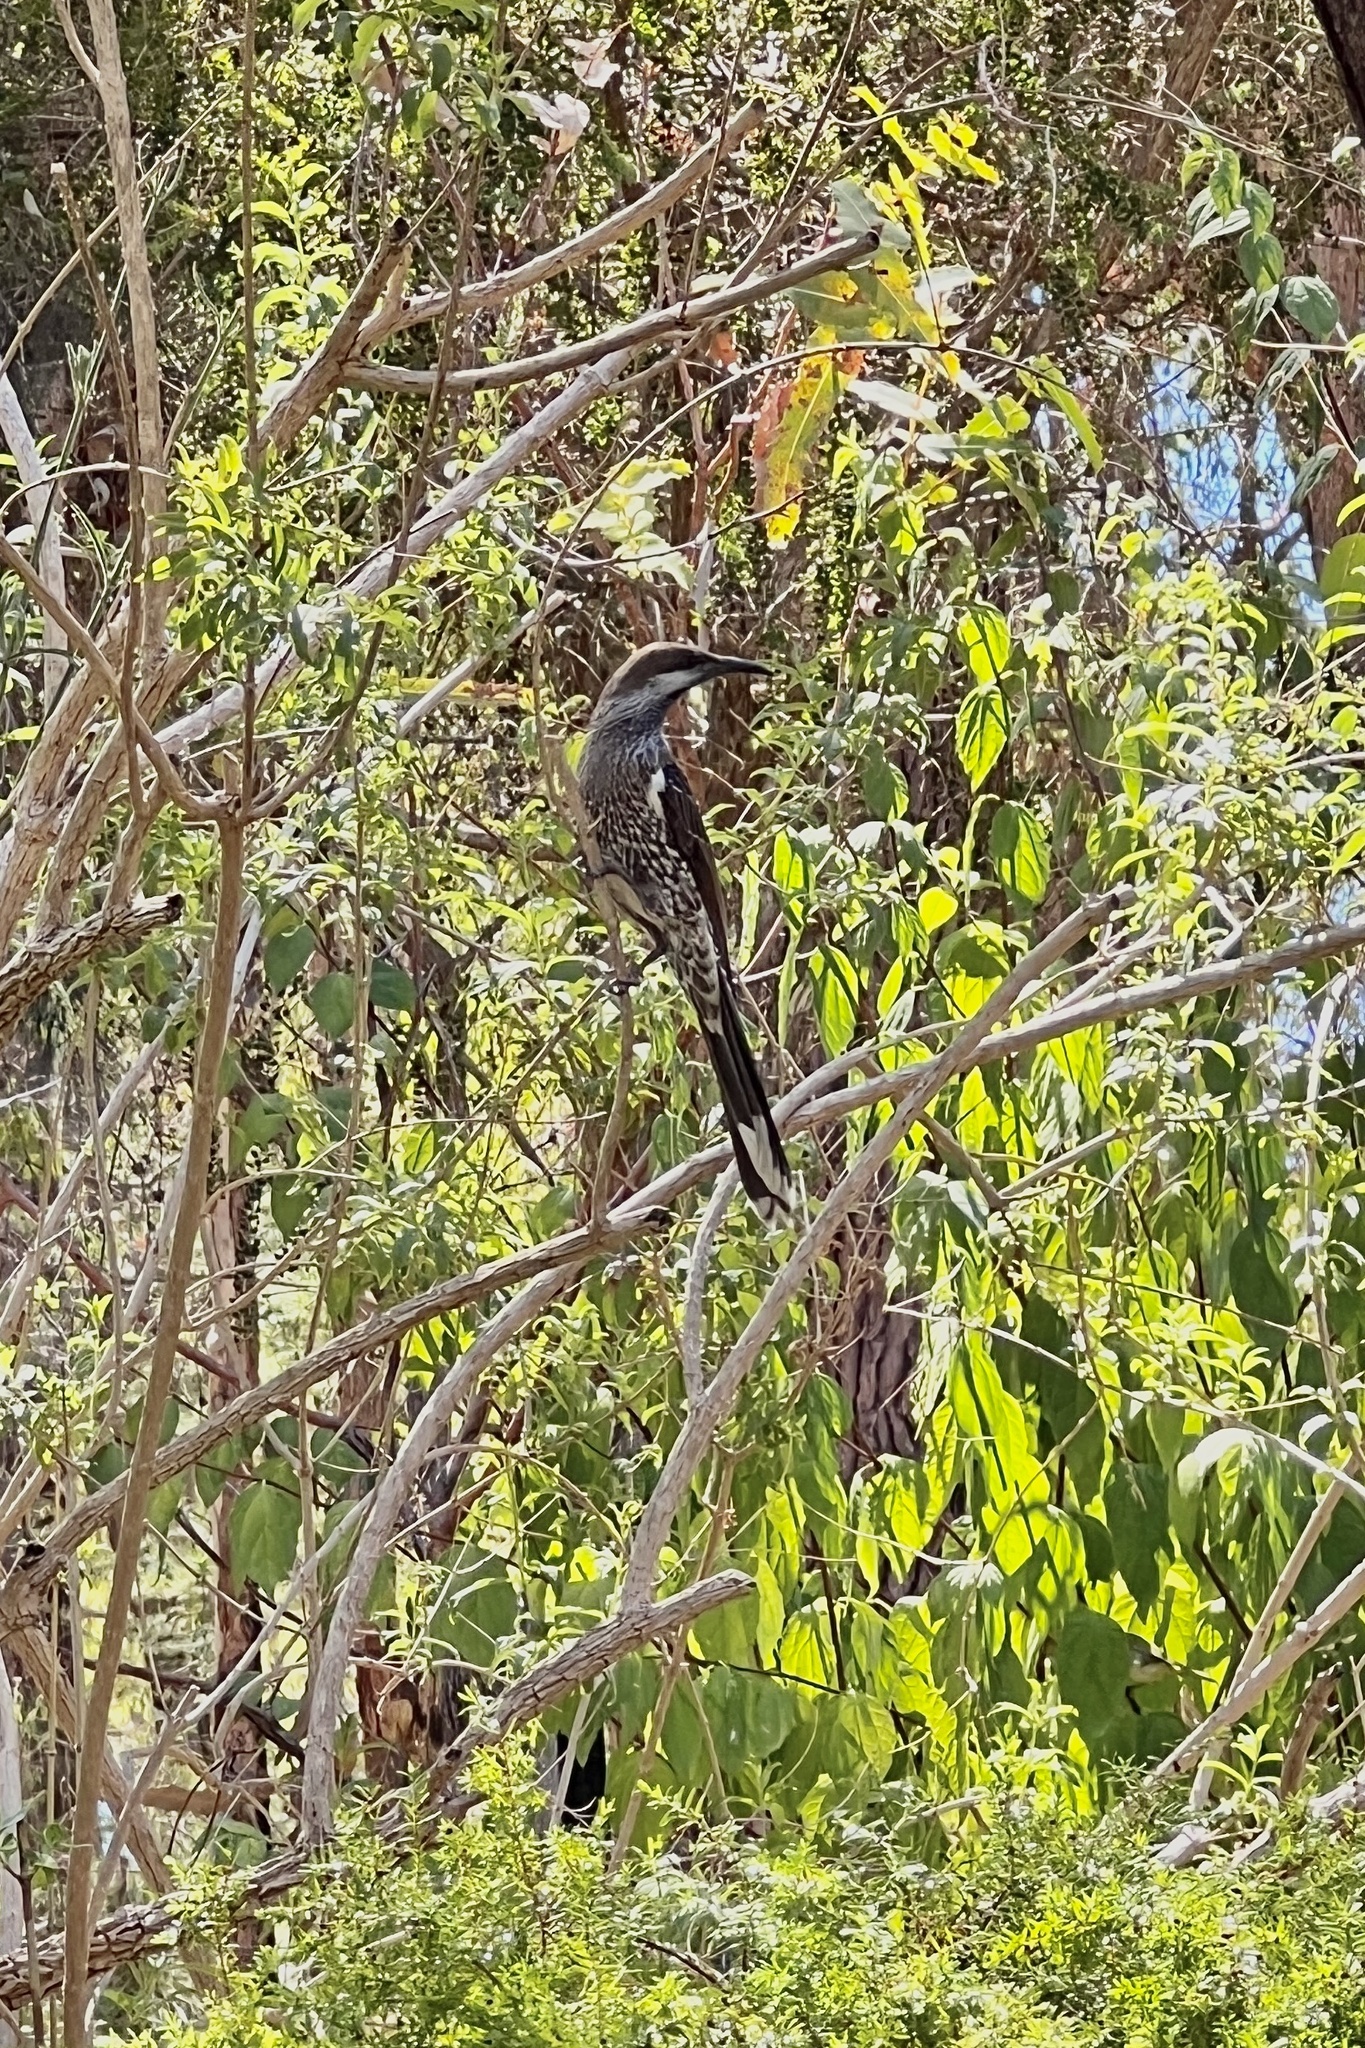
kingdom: Animalia
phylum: Chordata
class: Aves
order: Passeriformes
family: Meliphagidae
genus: Anthochaera
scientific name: Anthochaera lunulata
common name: Western wattlebird
